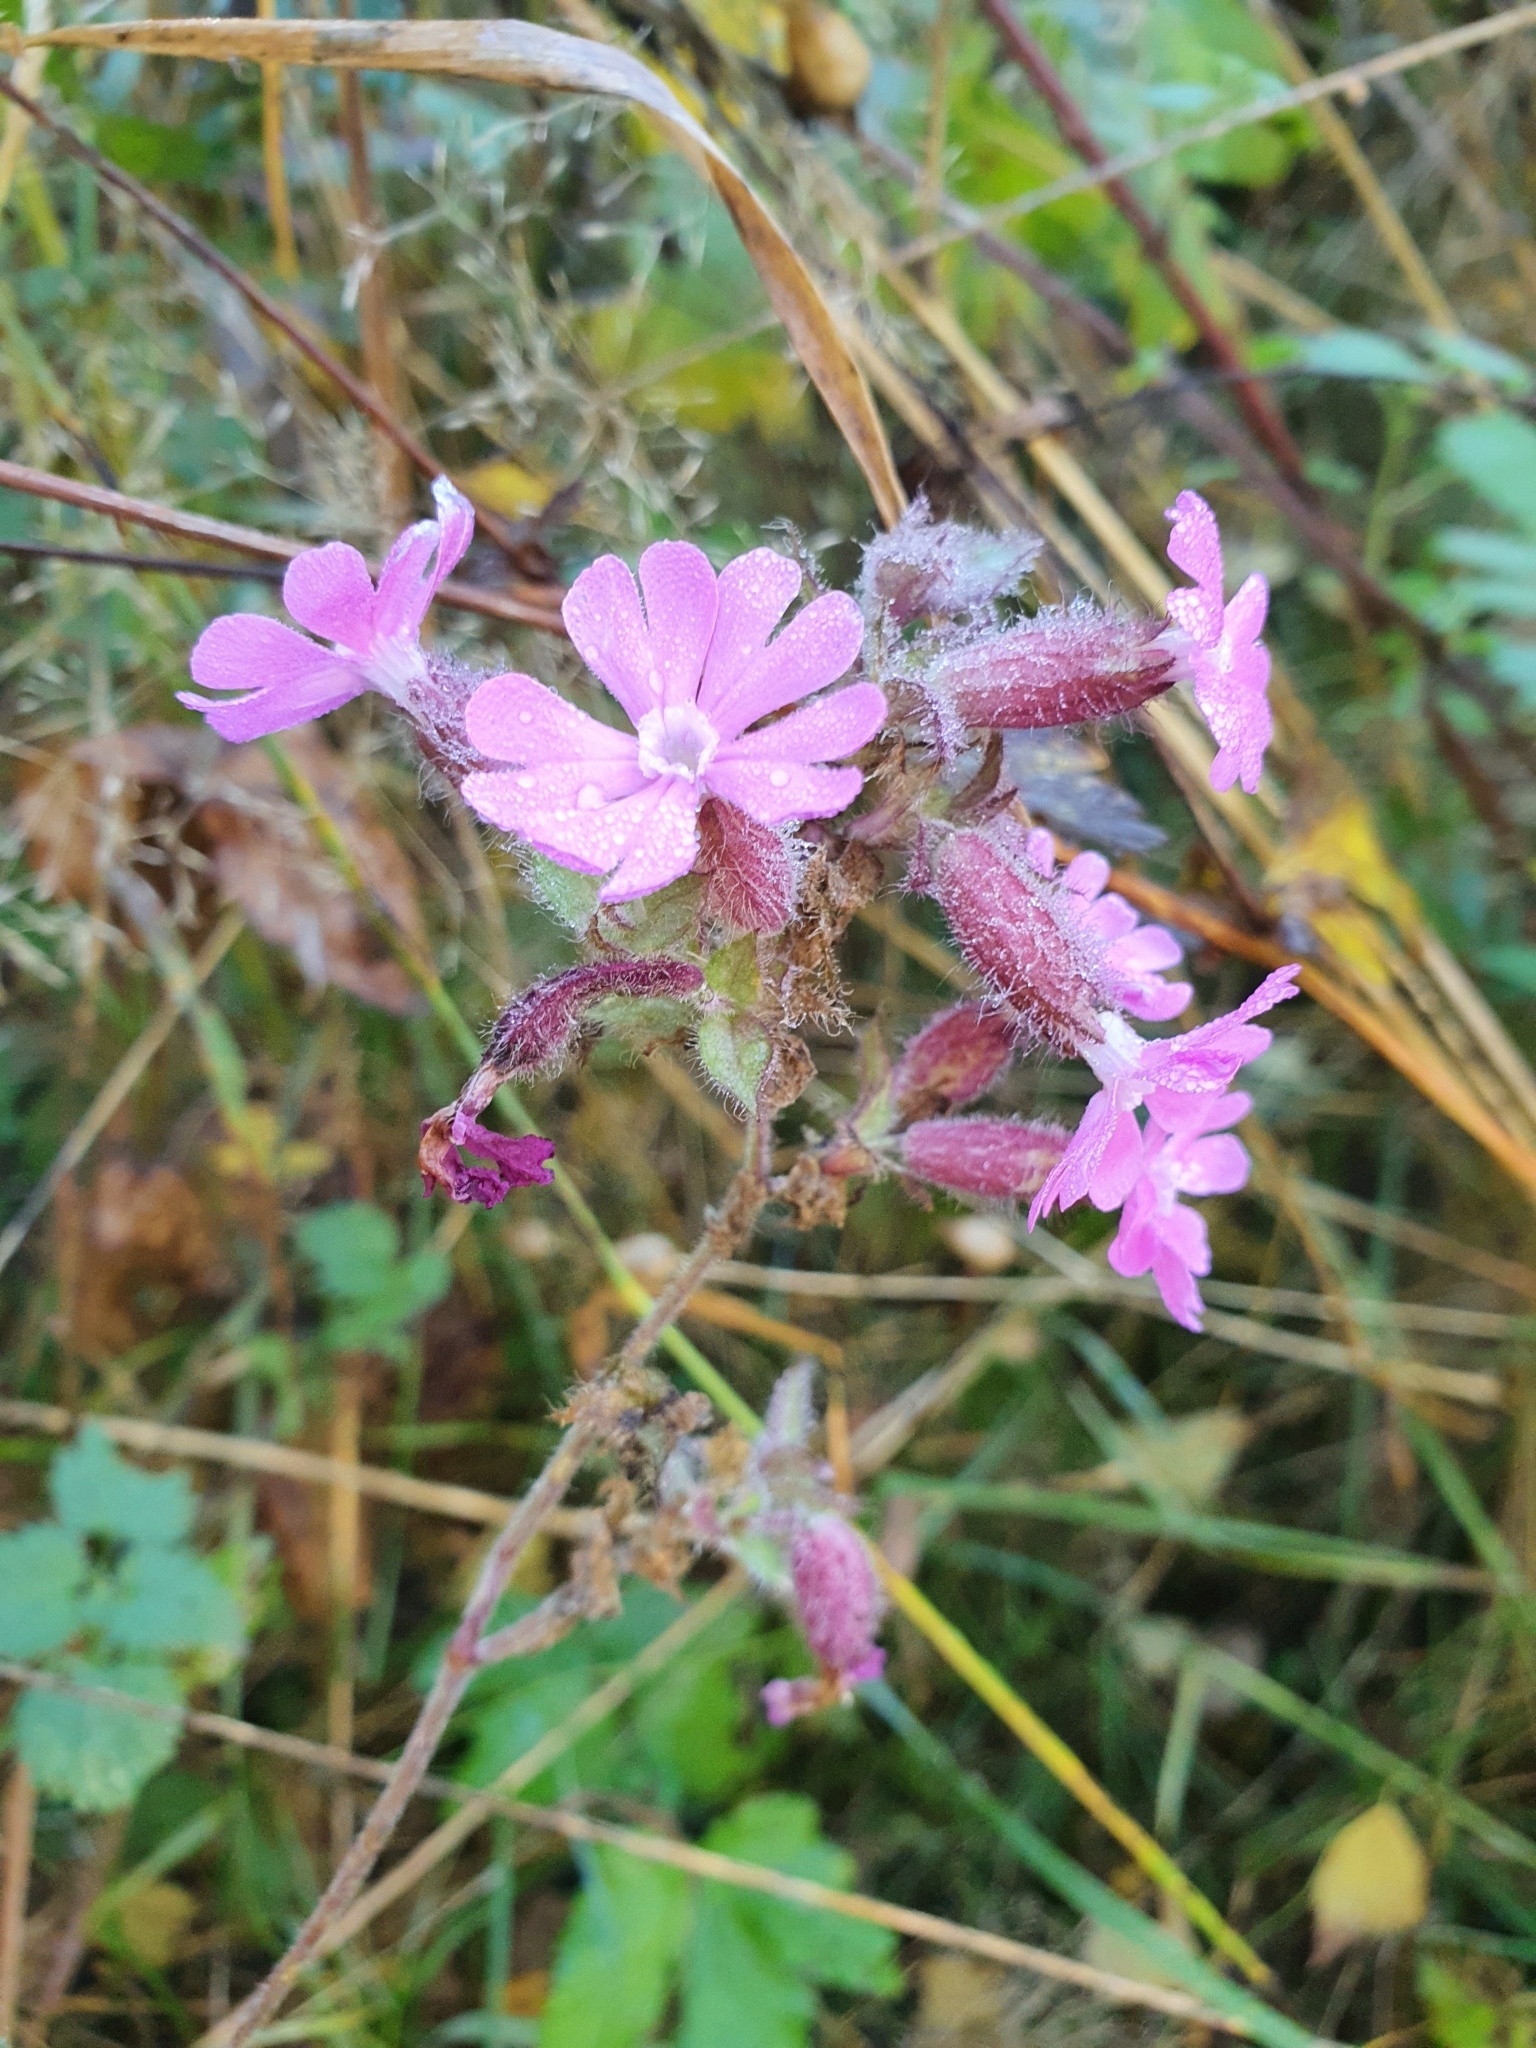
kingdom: Plantae
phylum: Tracheophyta
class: Magnoliopsida
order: Caryophyllales
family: Caryophyllaceae
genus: Silene
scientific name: Silene dioica
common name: Red campion
